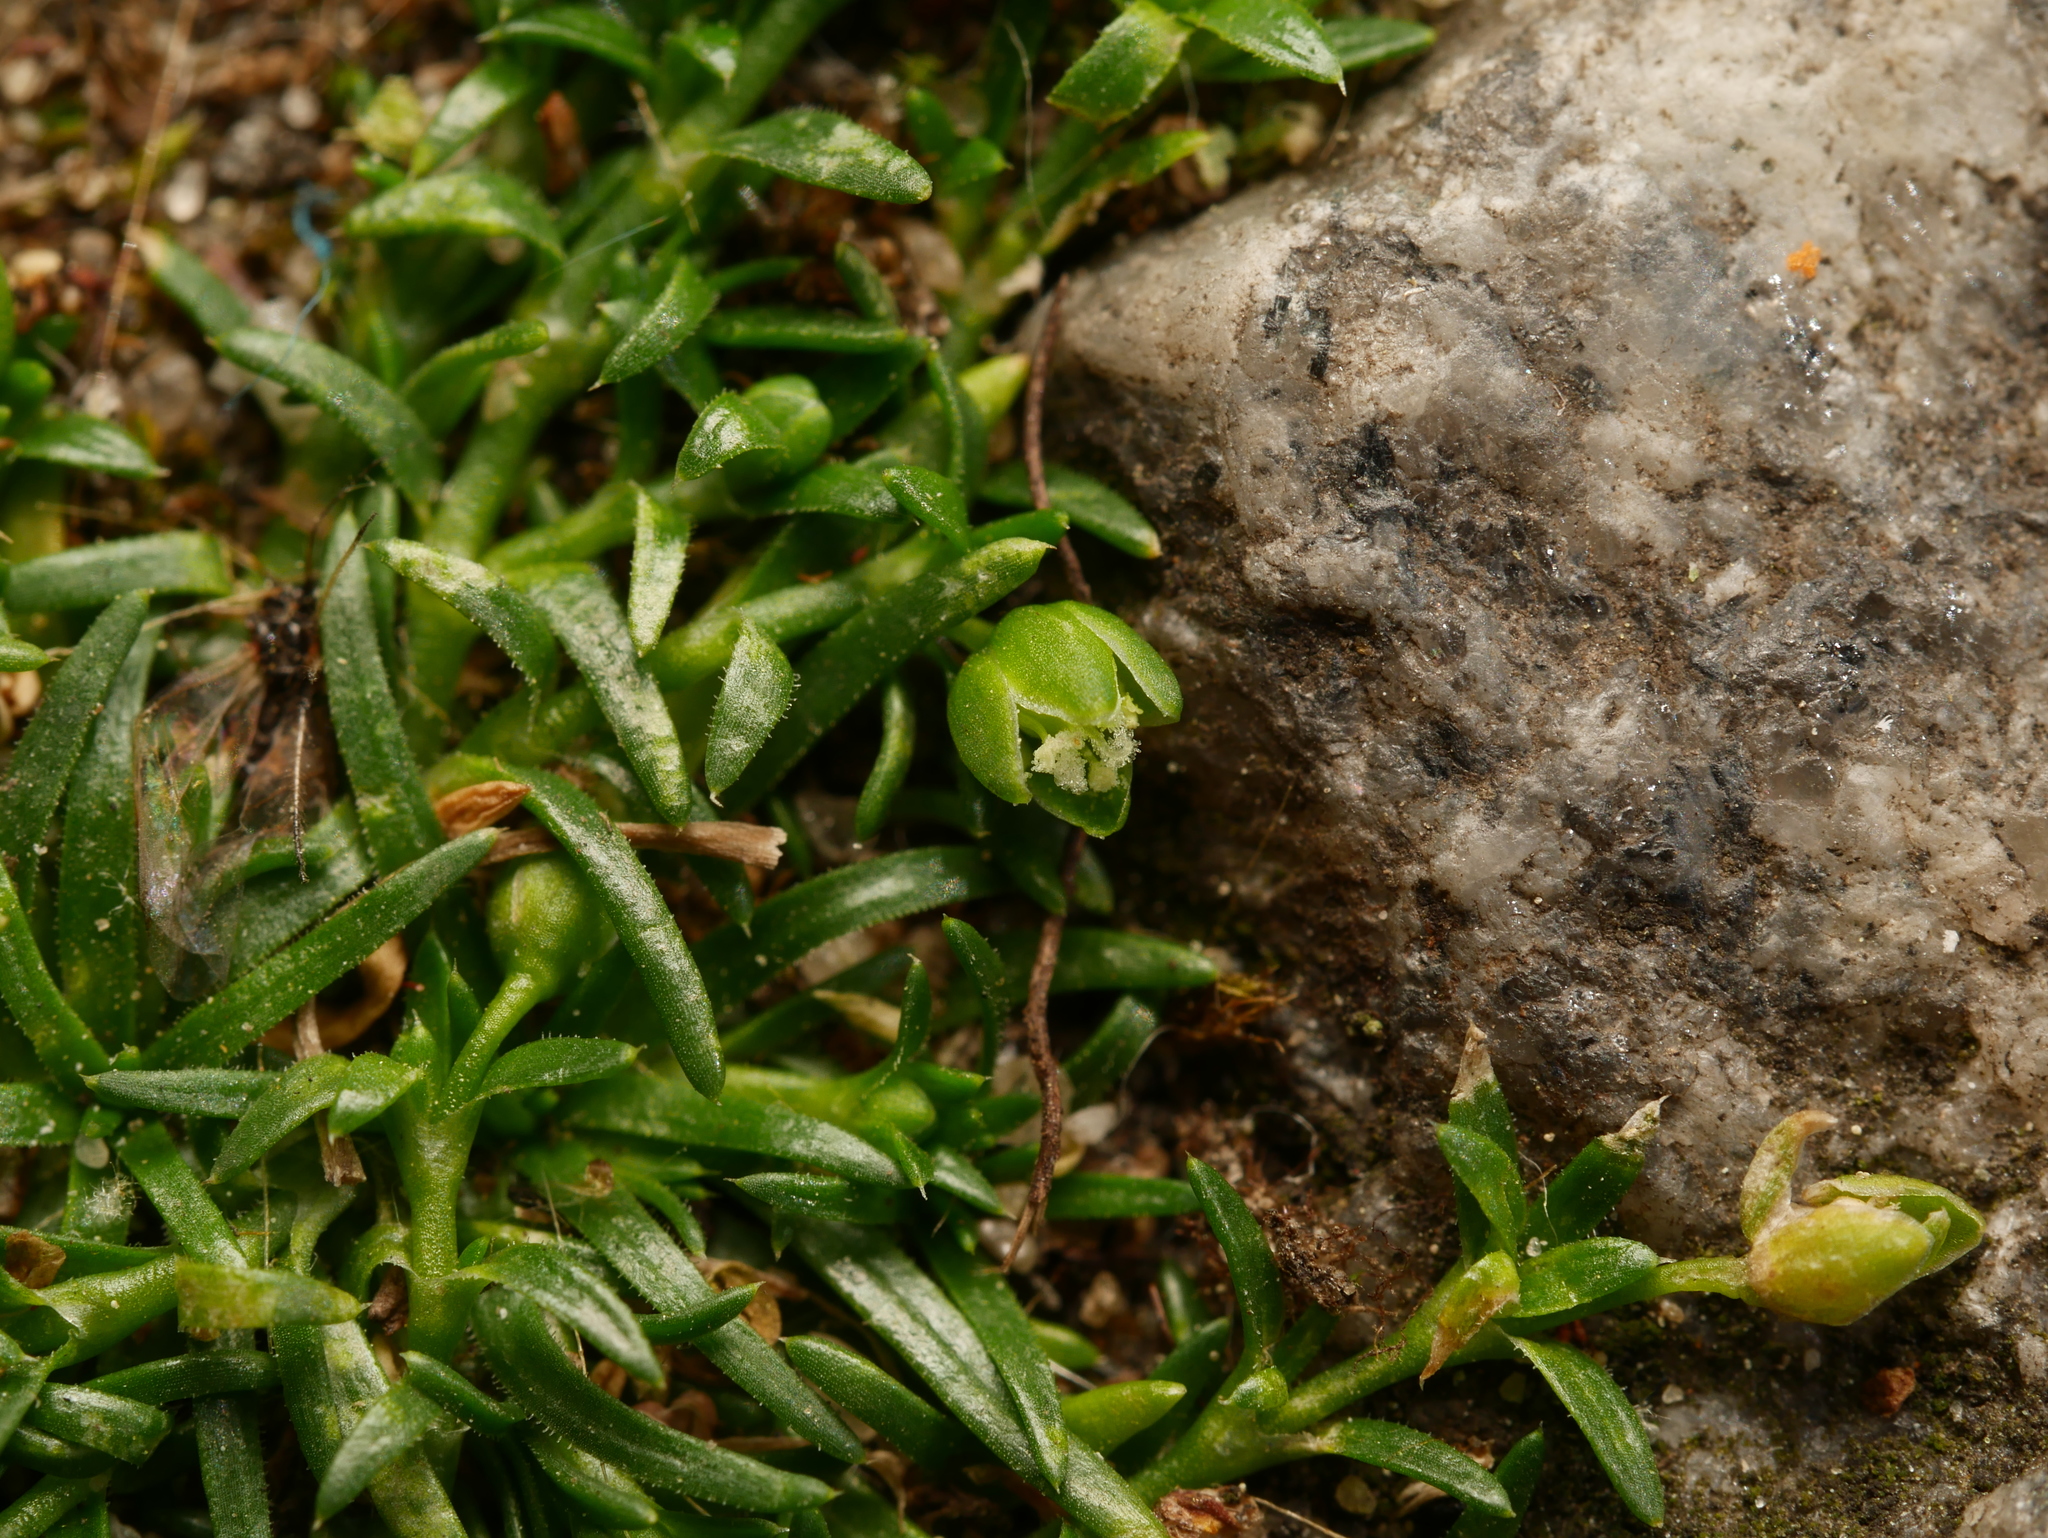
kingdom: Plantae
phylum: Tracheophyta
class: Magnoliopsida
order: Caryophyllales
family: Caryophyllaceae
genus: Sagina
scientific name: Sagina procumbens
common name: Procumbent pearlwort
